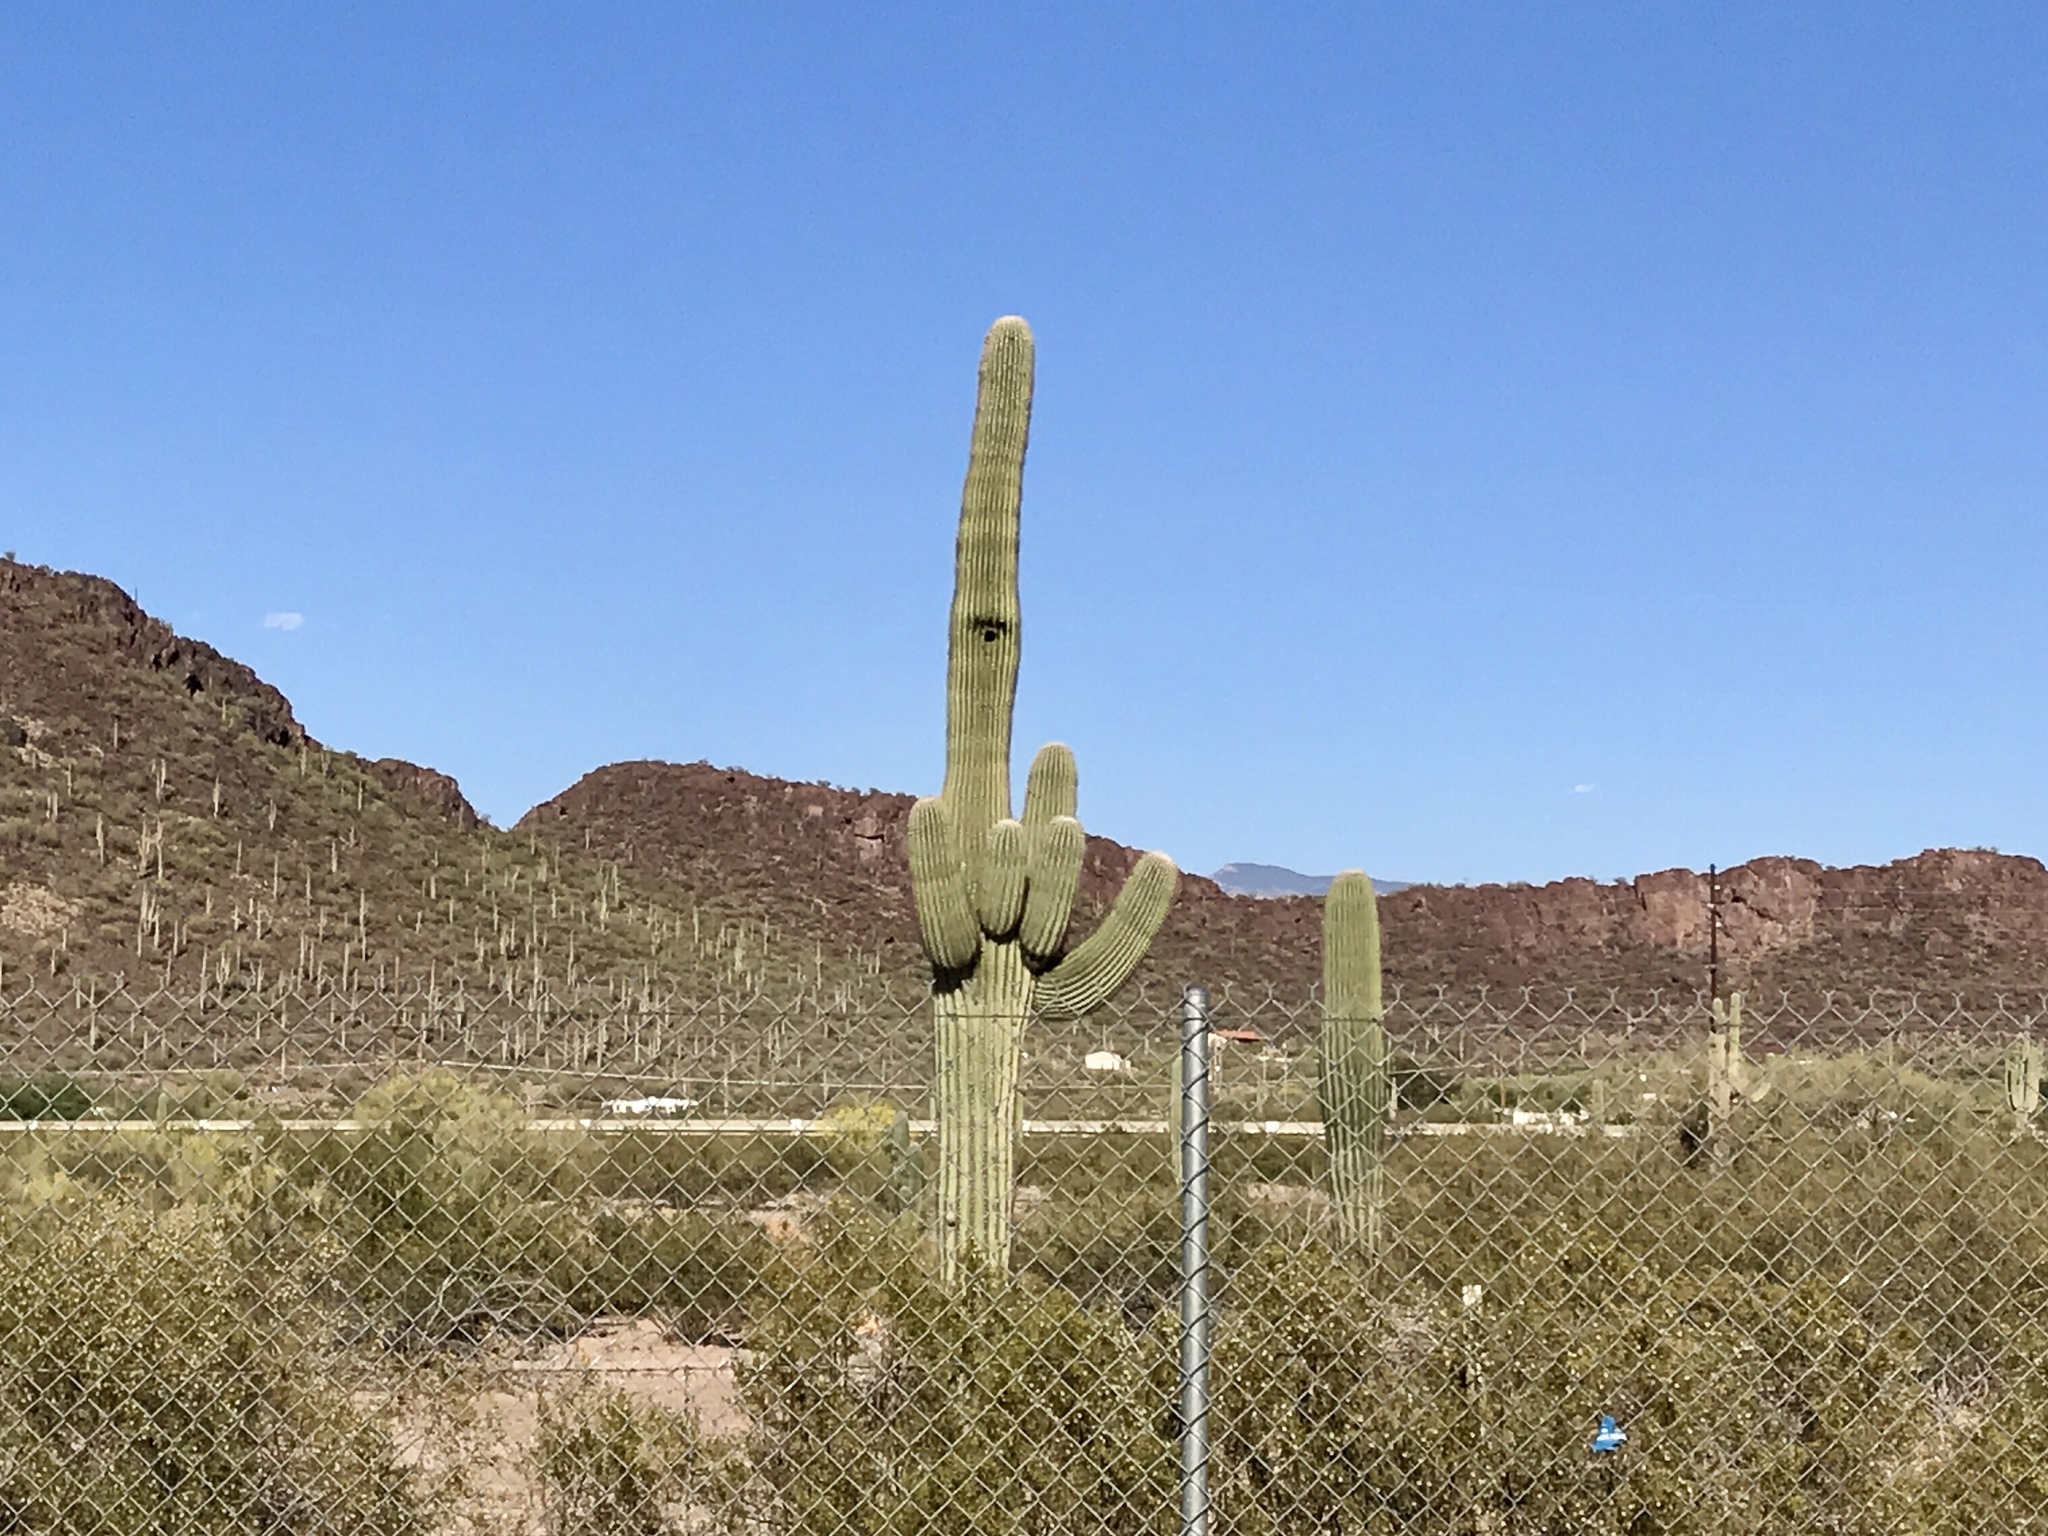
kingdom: Plantae
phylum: Tracheophyta
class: Magnoliopsida
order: Caryophyllales
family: Cactaceae
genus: Carnegiea
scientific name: Carnegiea gigantea
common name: Saguaro
